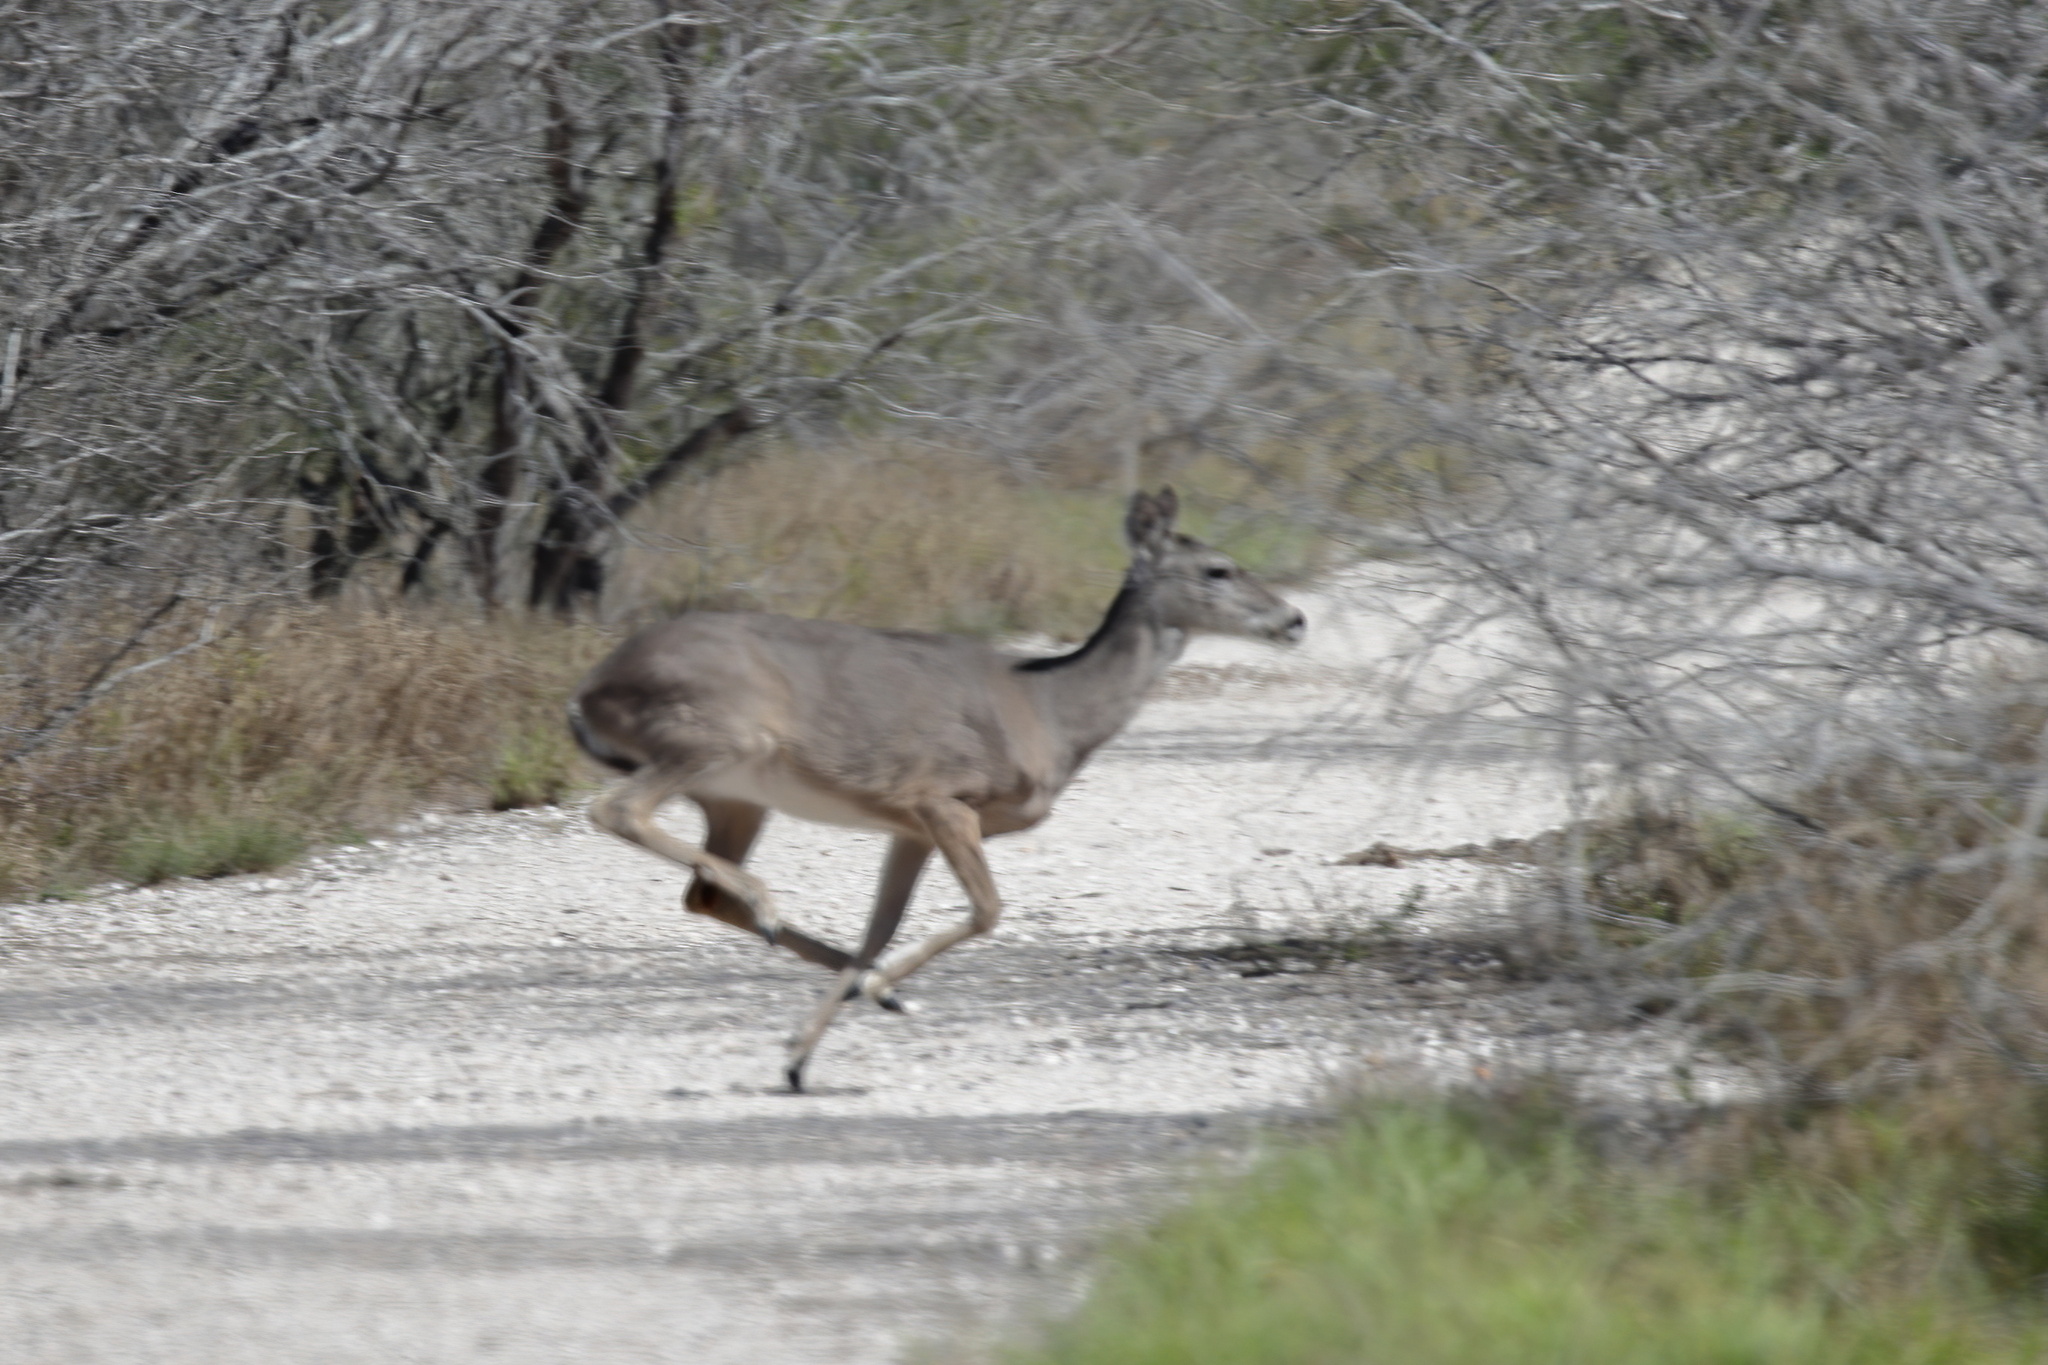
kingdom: Animalia
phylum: Chordata
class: Mammalia
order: Artiodactyla
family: Cervidae
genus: Odocoileus
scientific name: Odocoileus virginianus
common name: White-tailed deer
